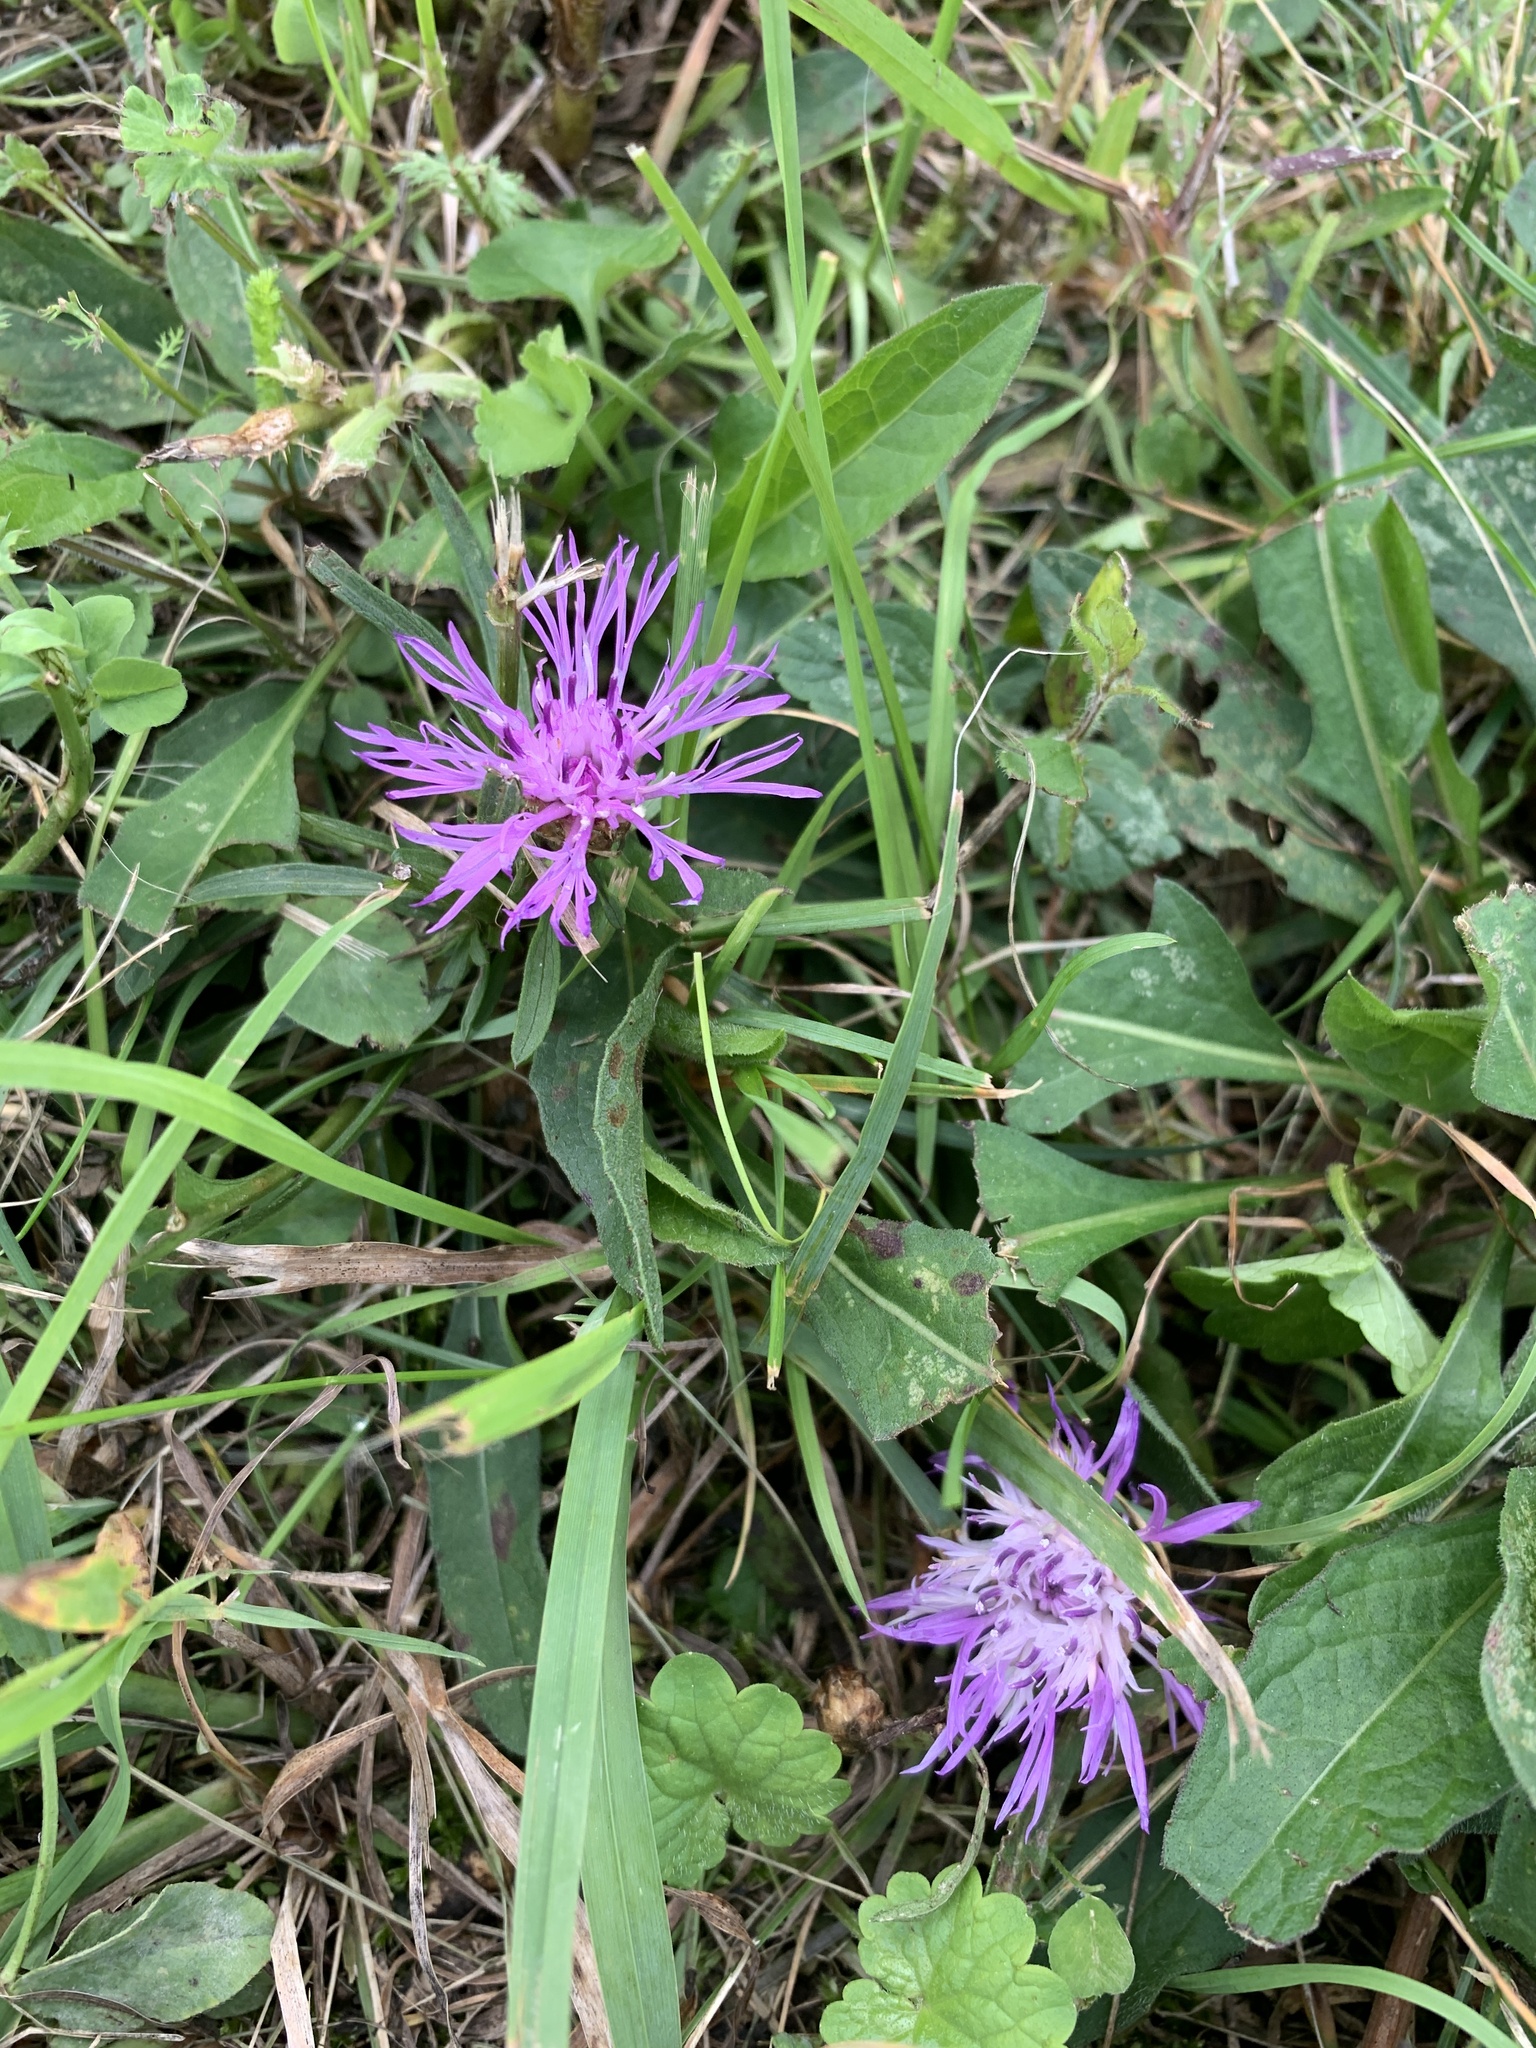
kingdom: Plantae
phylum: Tracheophyta
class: Magnoliopsida
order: Asterales
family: Asteraceae
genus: Centaurea
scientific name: Centaurea jacea
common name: Brown knapweed
